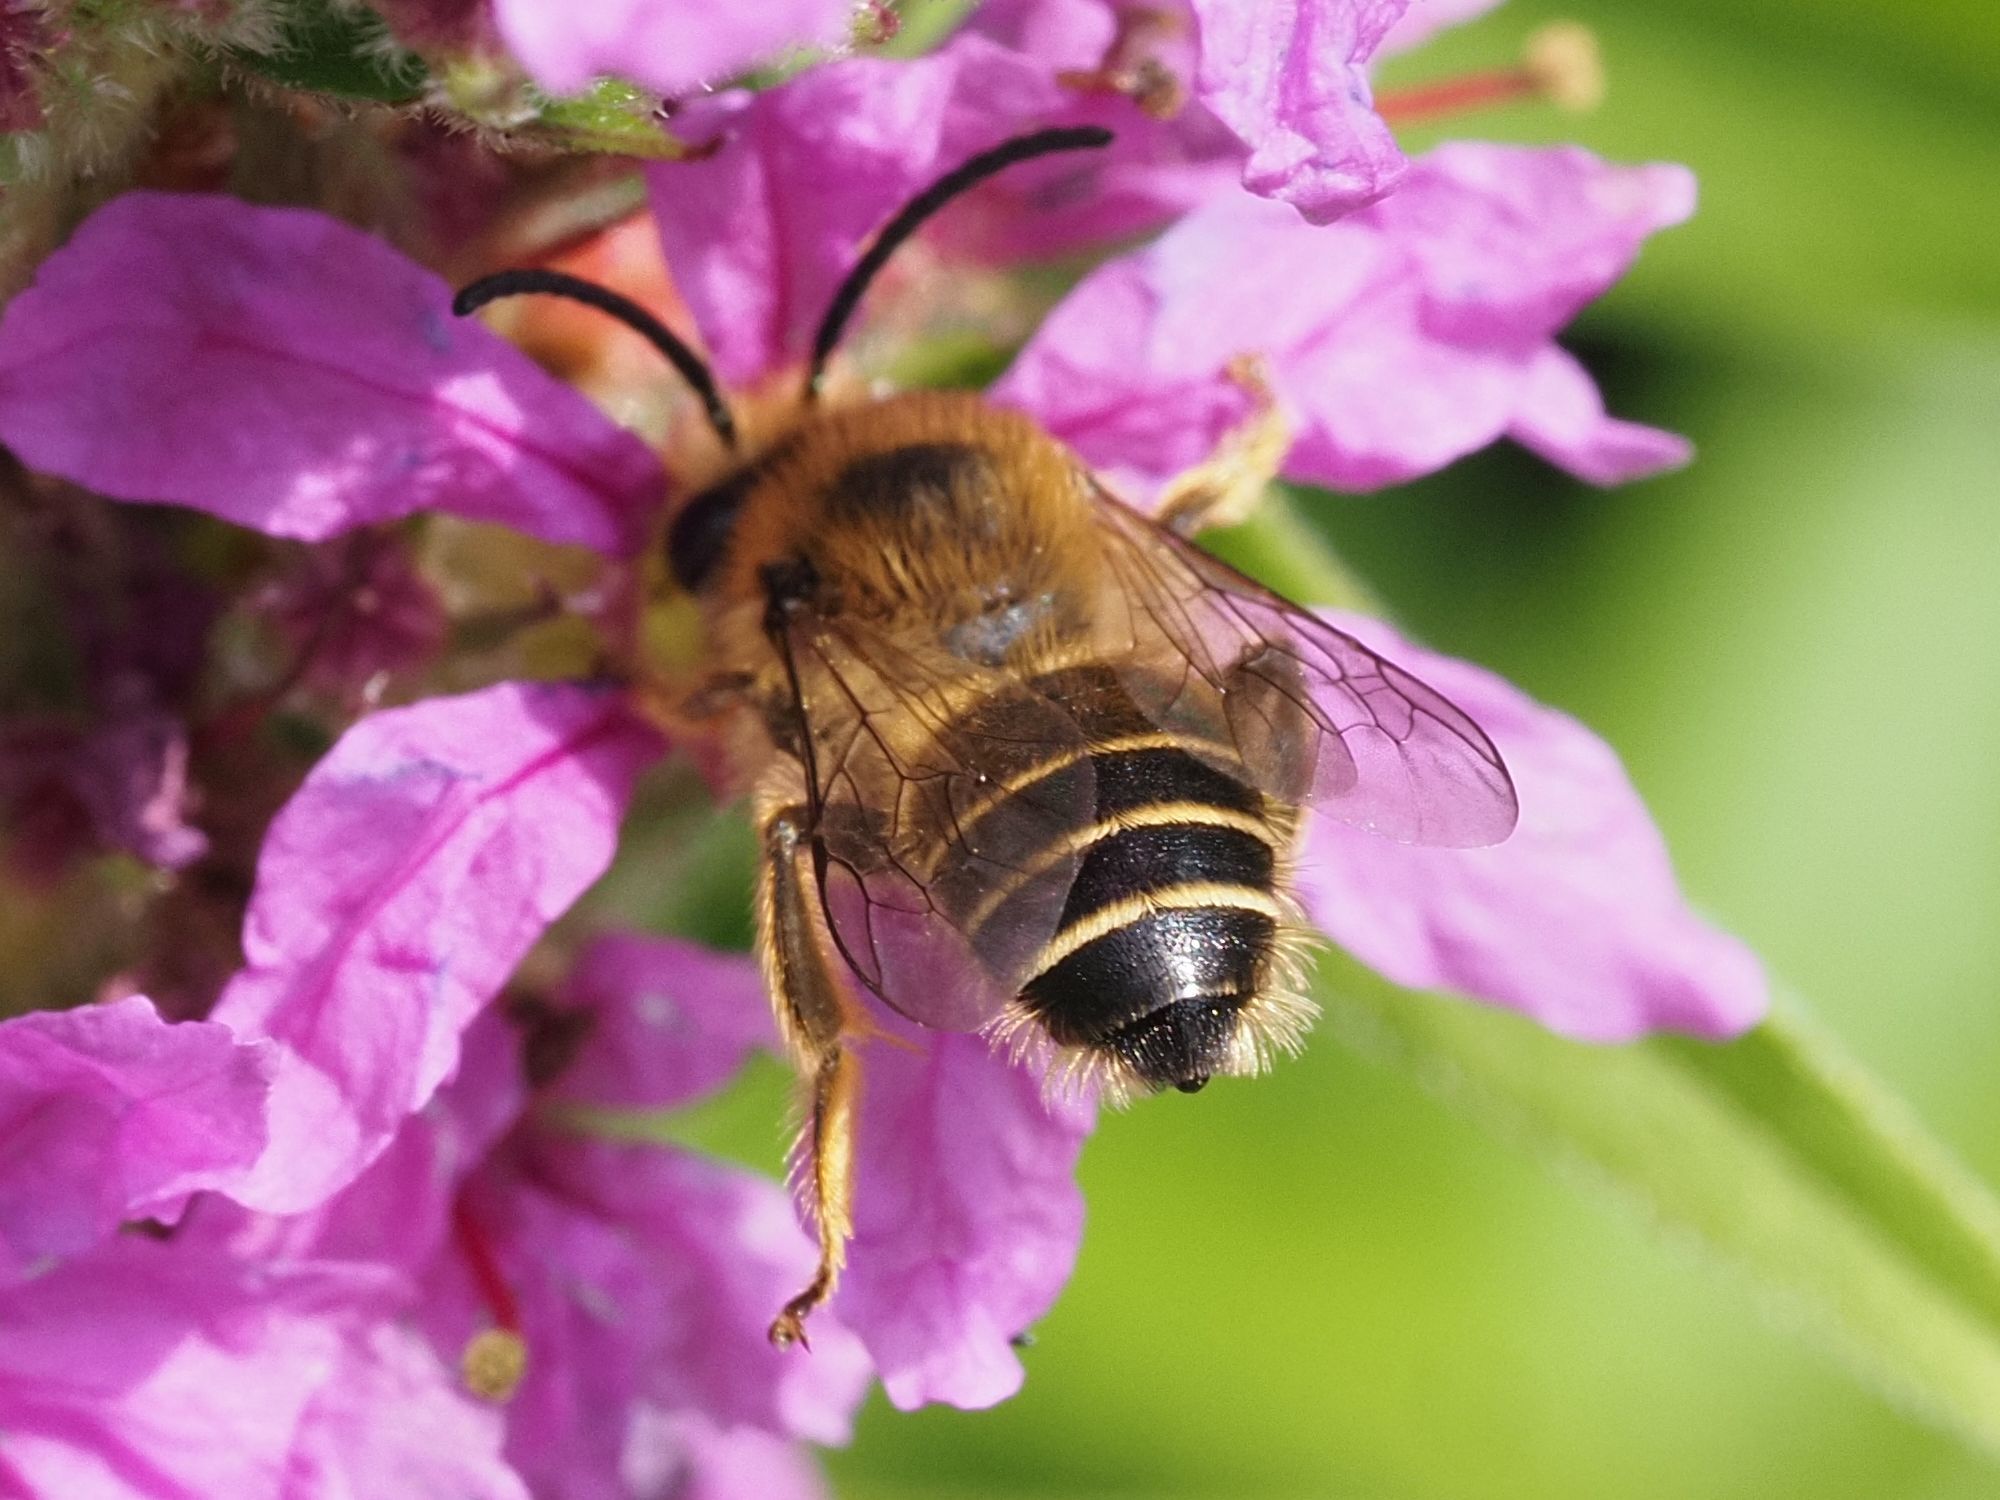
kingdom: Animalia
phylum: Arthropoda
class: Insecta
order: Hymenoptera
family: Melittidae
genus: Melitta
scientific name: Melitta nigricans
